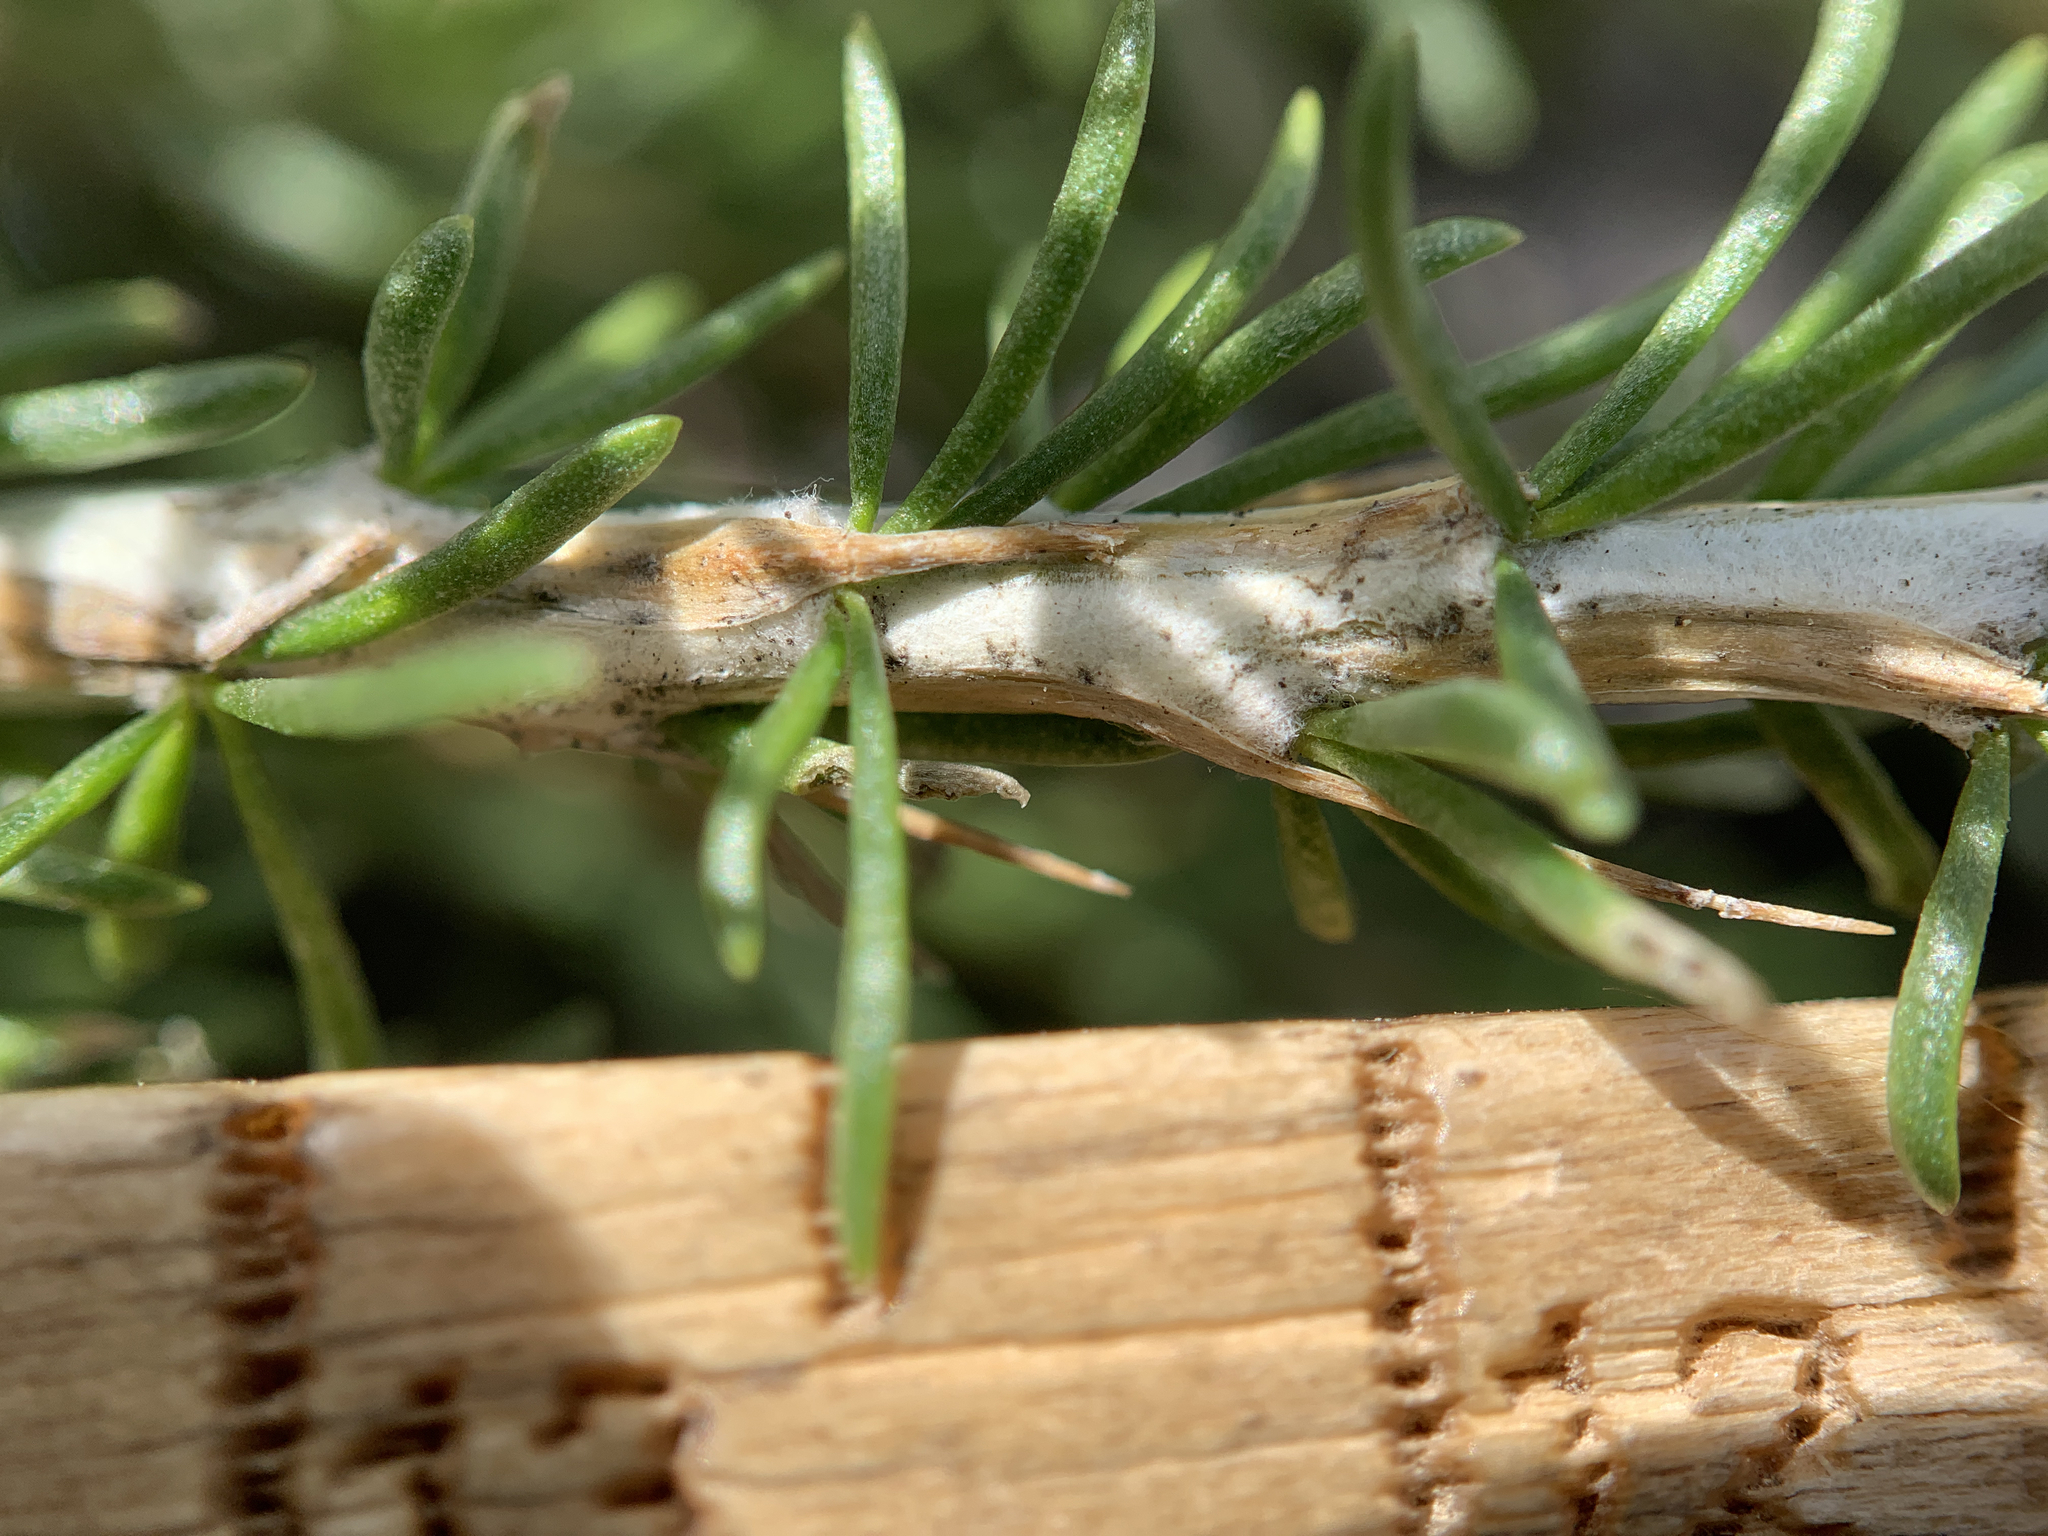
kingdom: Plantae
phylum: Tracheophyta
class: Magnoliopsida
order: Asterales
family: Asteraceae
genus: Tetradymia
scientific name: Tetradymia glabrata
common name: Smooth tetradymia
